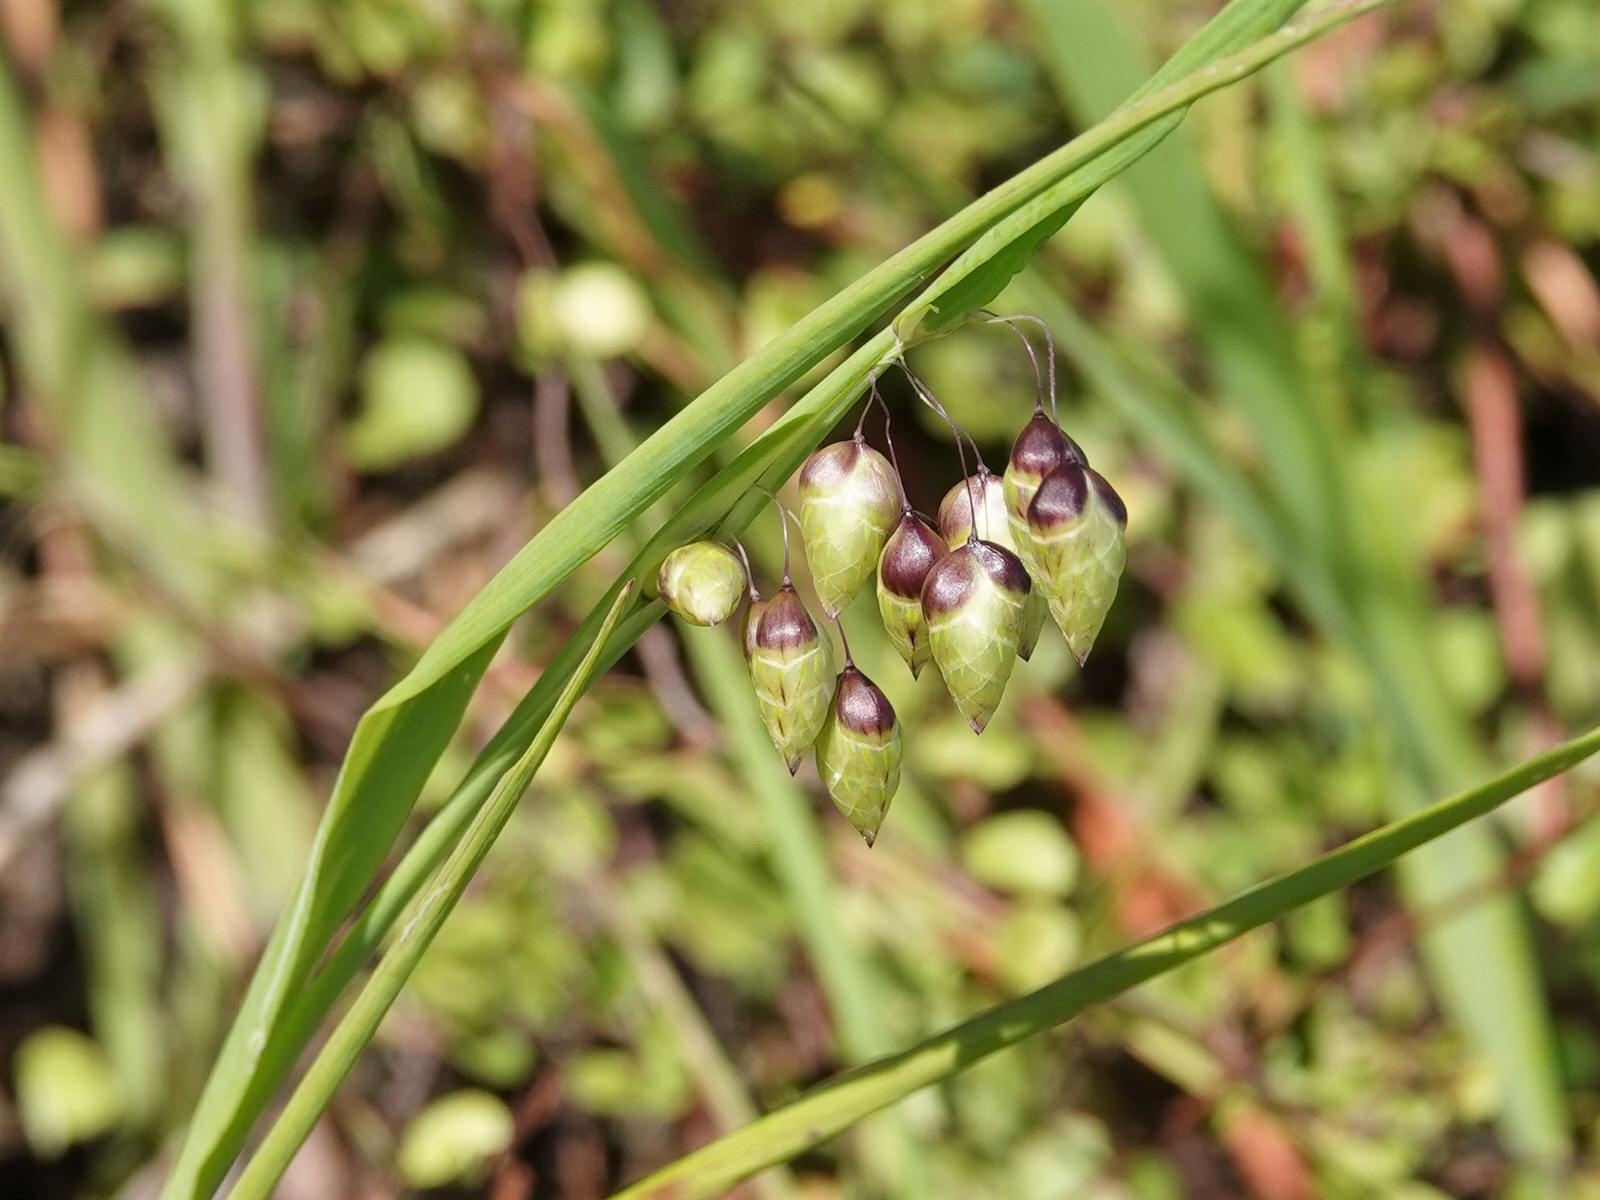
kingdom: Plantae
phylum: Tracheophyta
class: Liliopsida
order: Poales
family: Poaceae
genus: Briza
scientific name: Briza maxima
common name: Big quakinggrass
